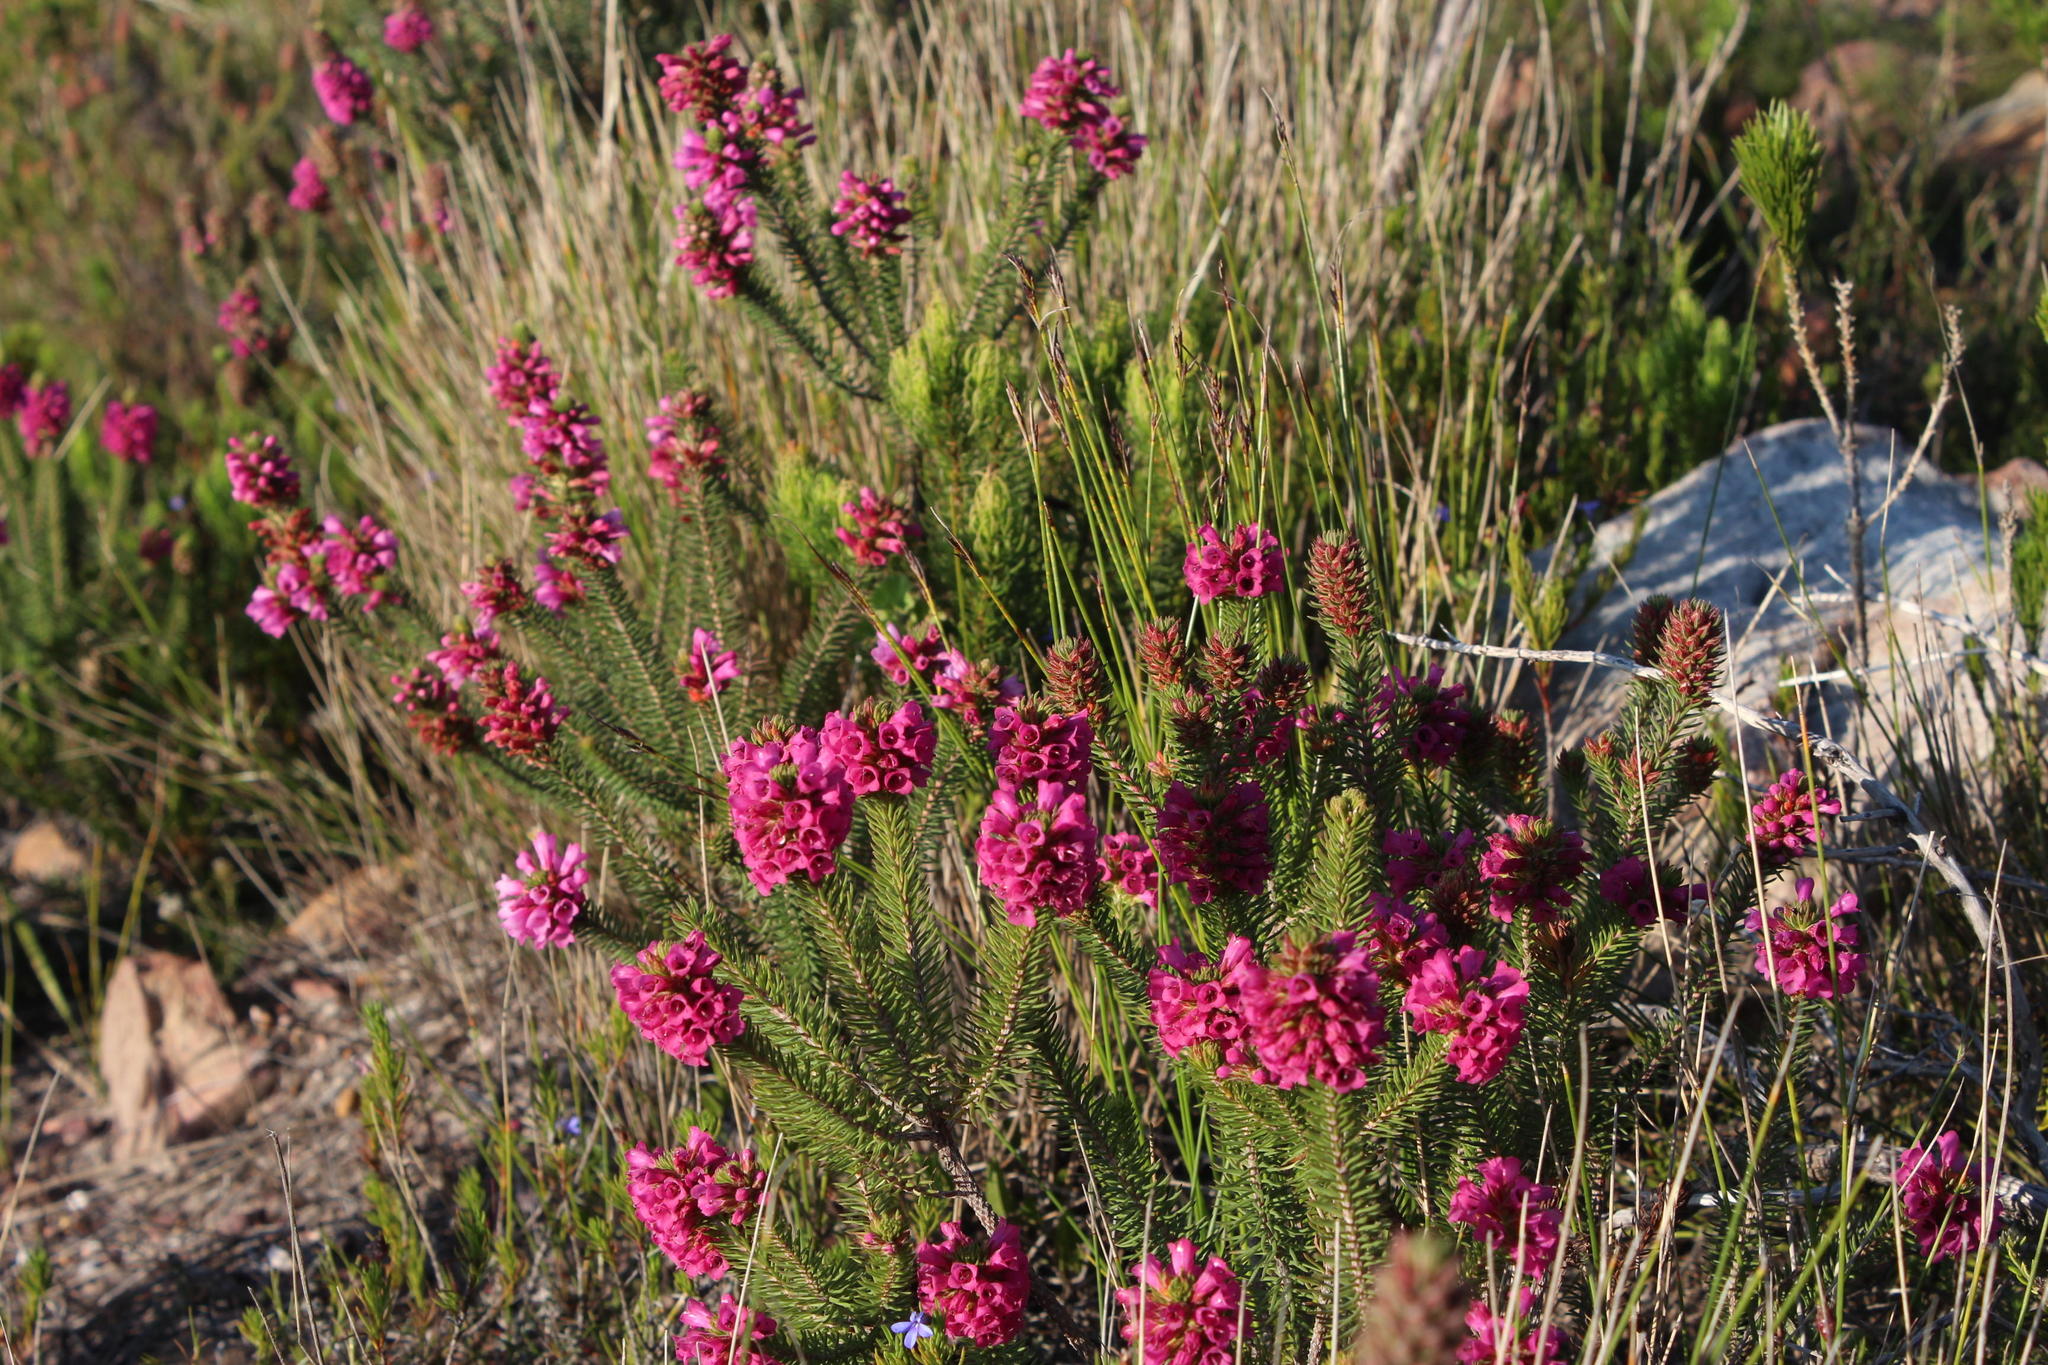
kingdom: Plantae
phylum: Tracheophyta
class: Magnoliopsida
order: Ericales
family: Ericaceae
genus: Erica
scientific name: Erica abietina
